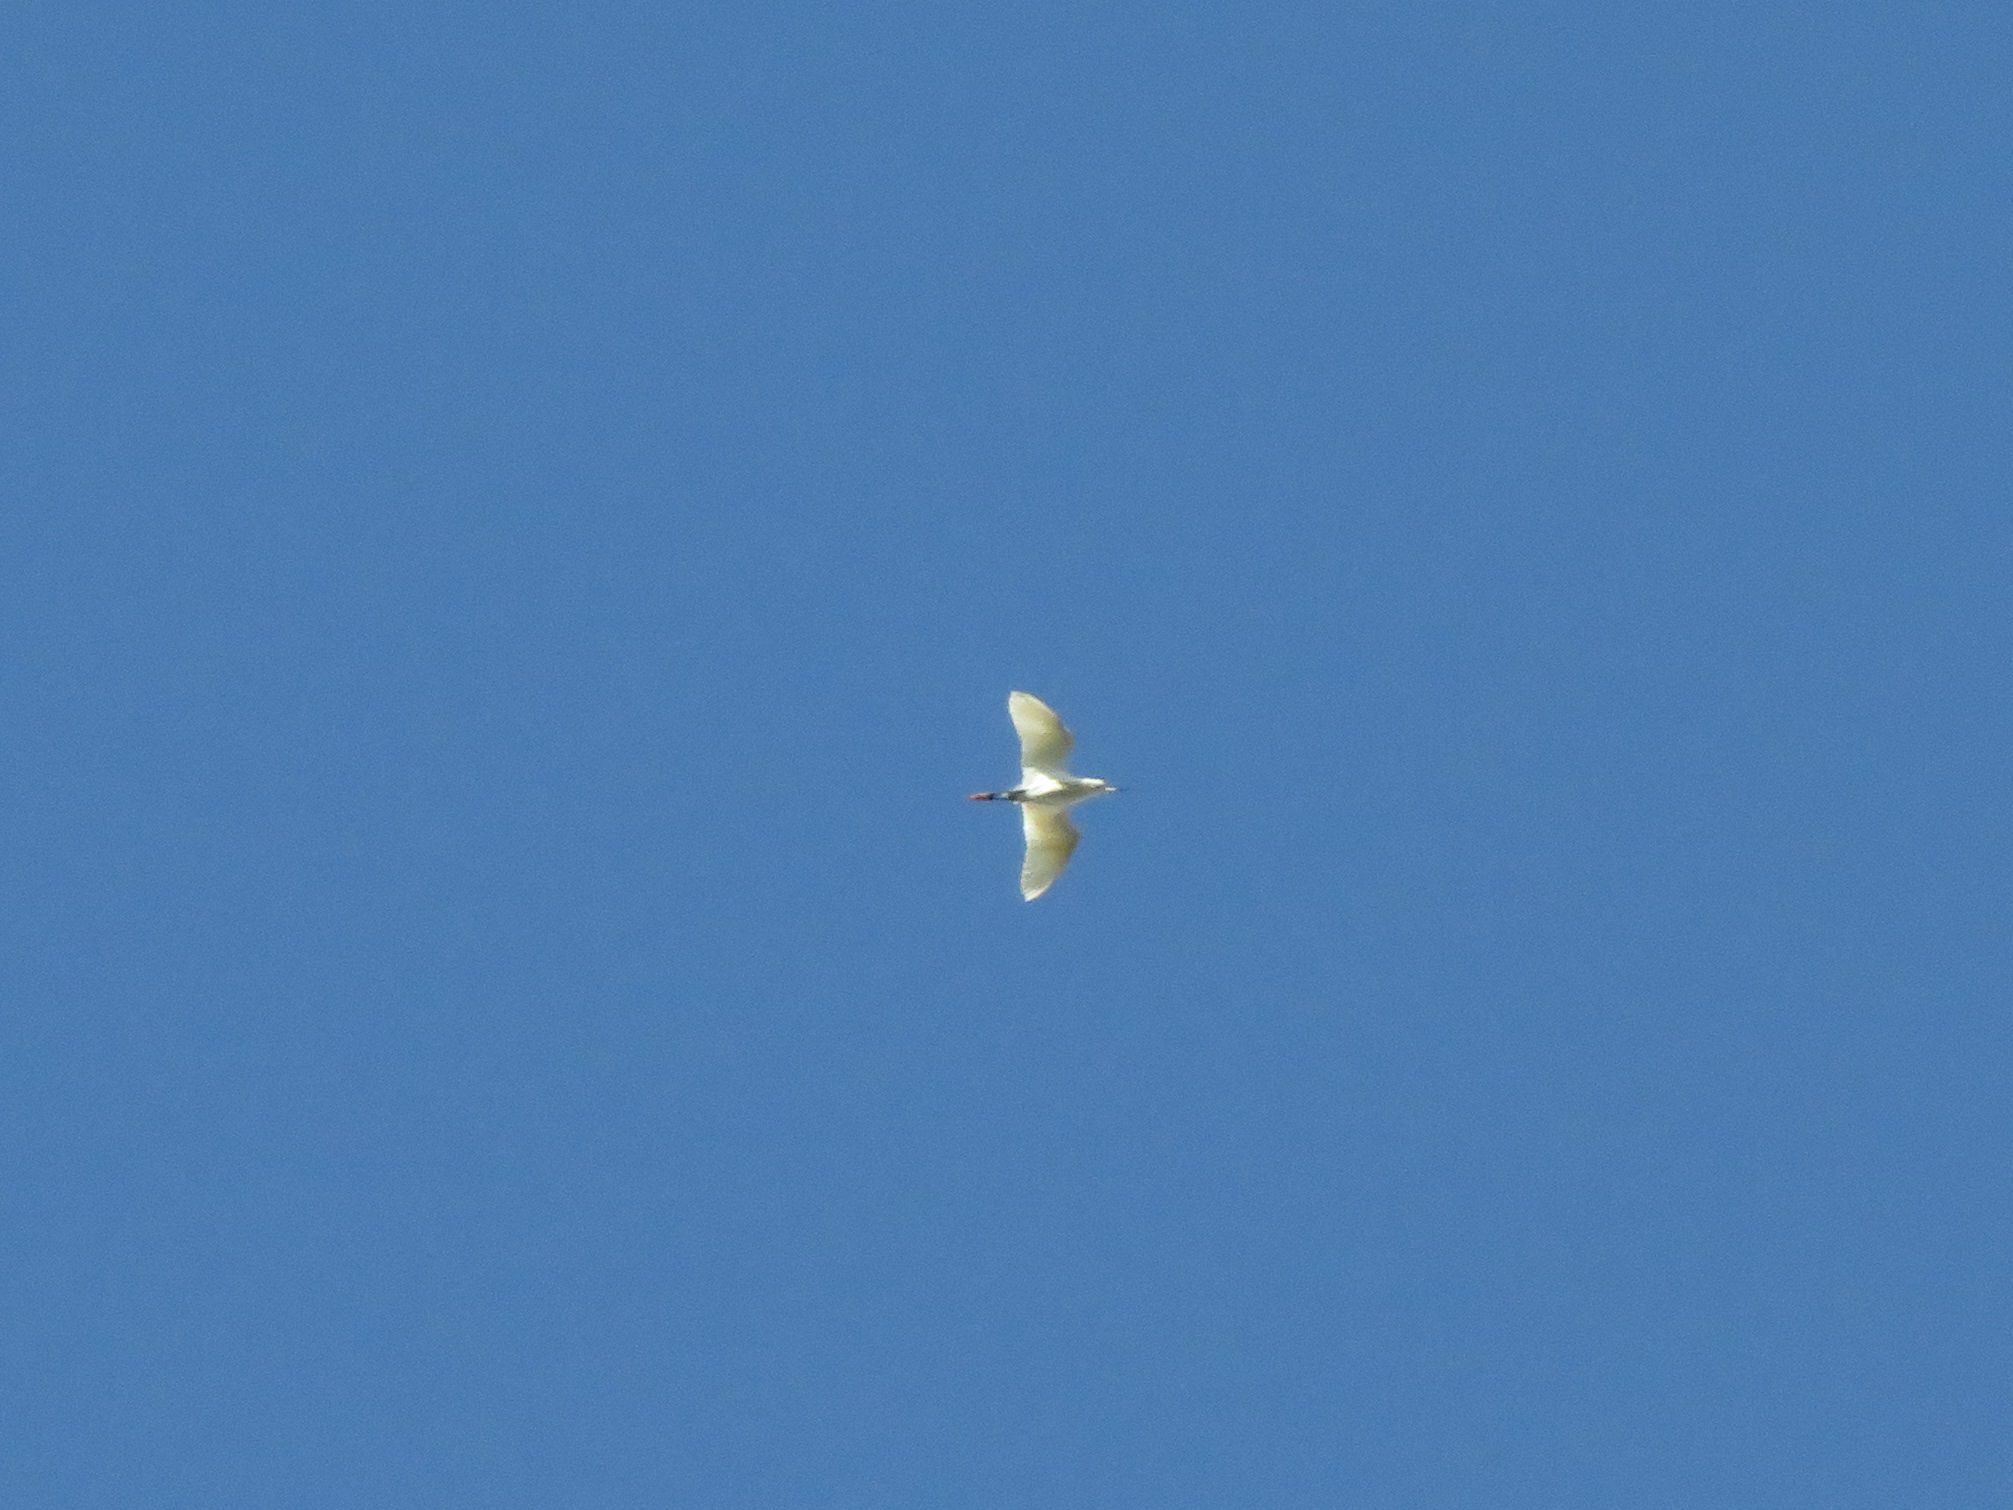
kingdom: Animalia
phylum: Chordata
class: Aves
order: Pelecaniformes
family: Ardeidae
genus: Egretta
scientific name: Egretta thula
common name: Snowy egret
